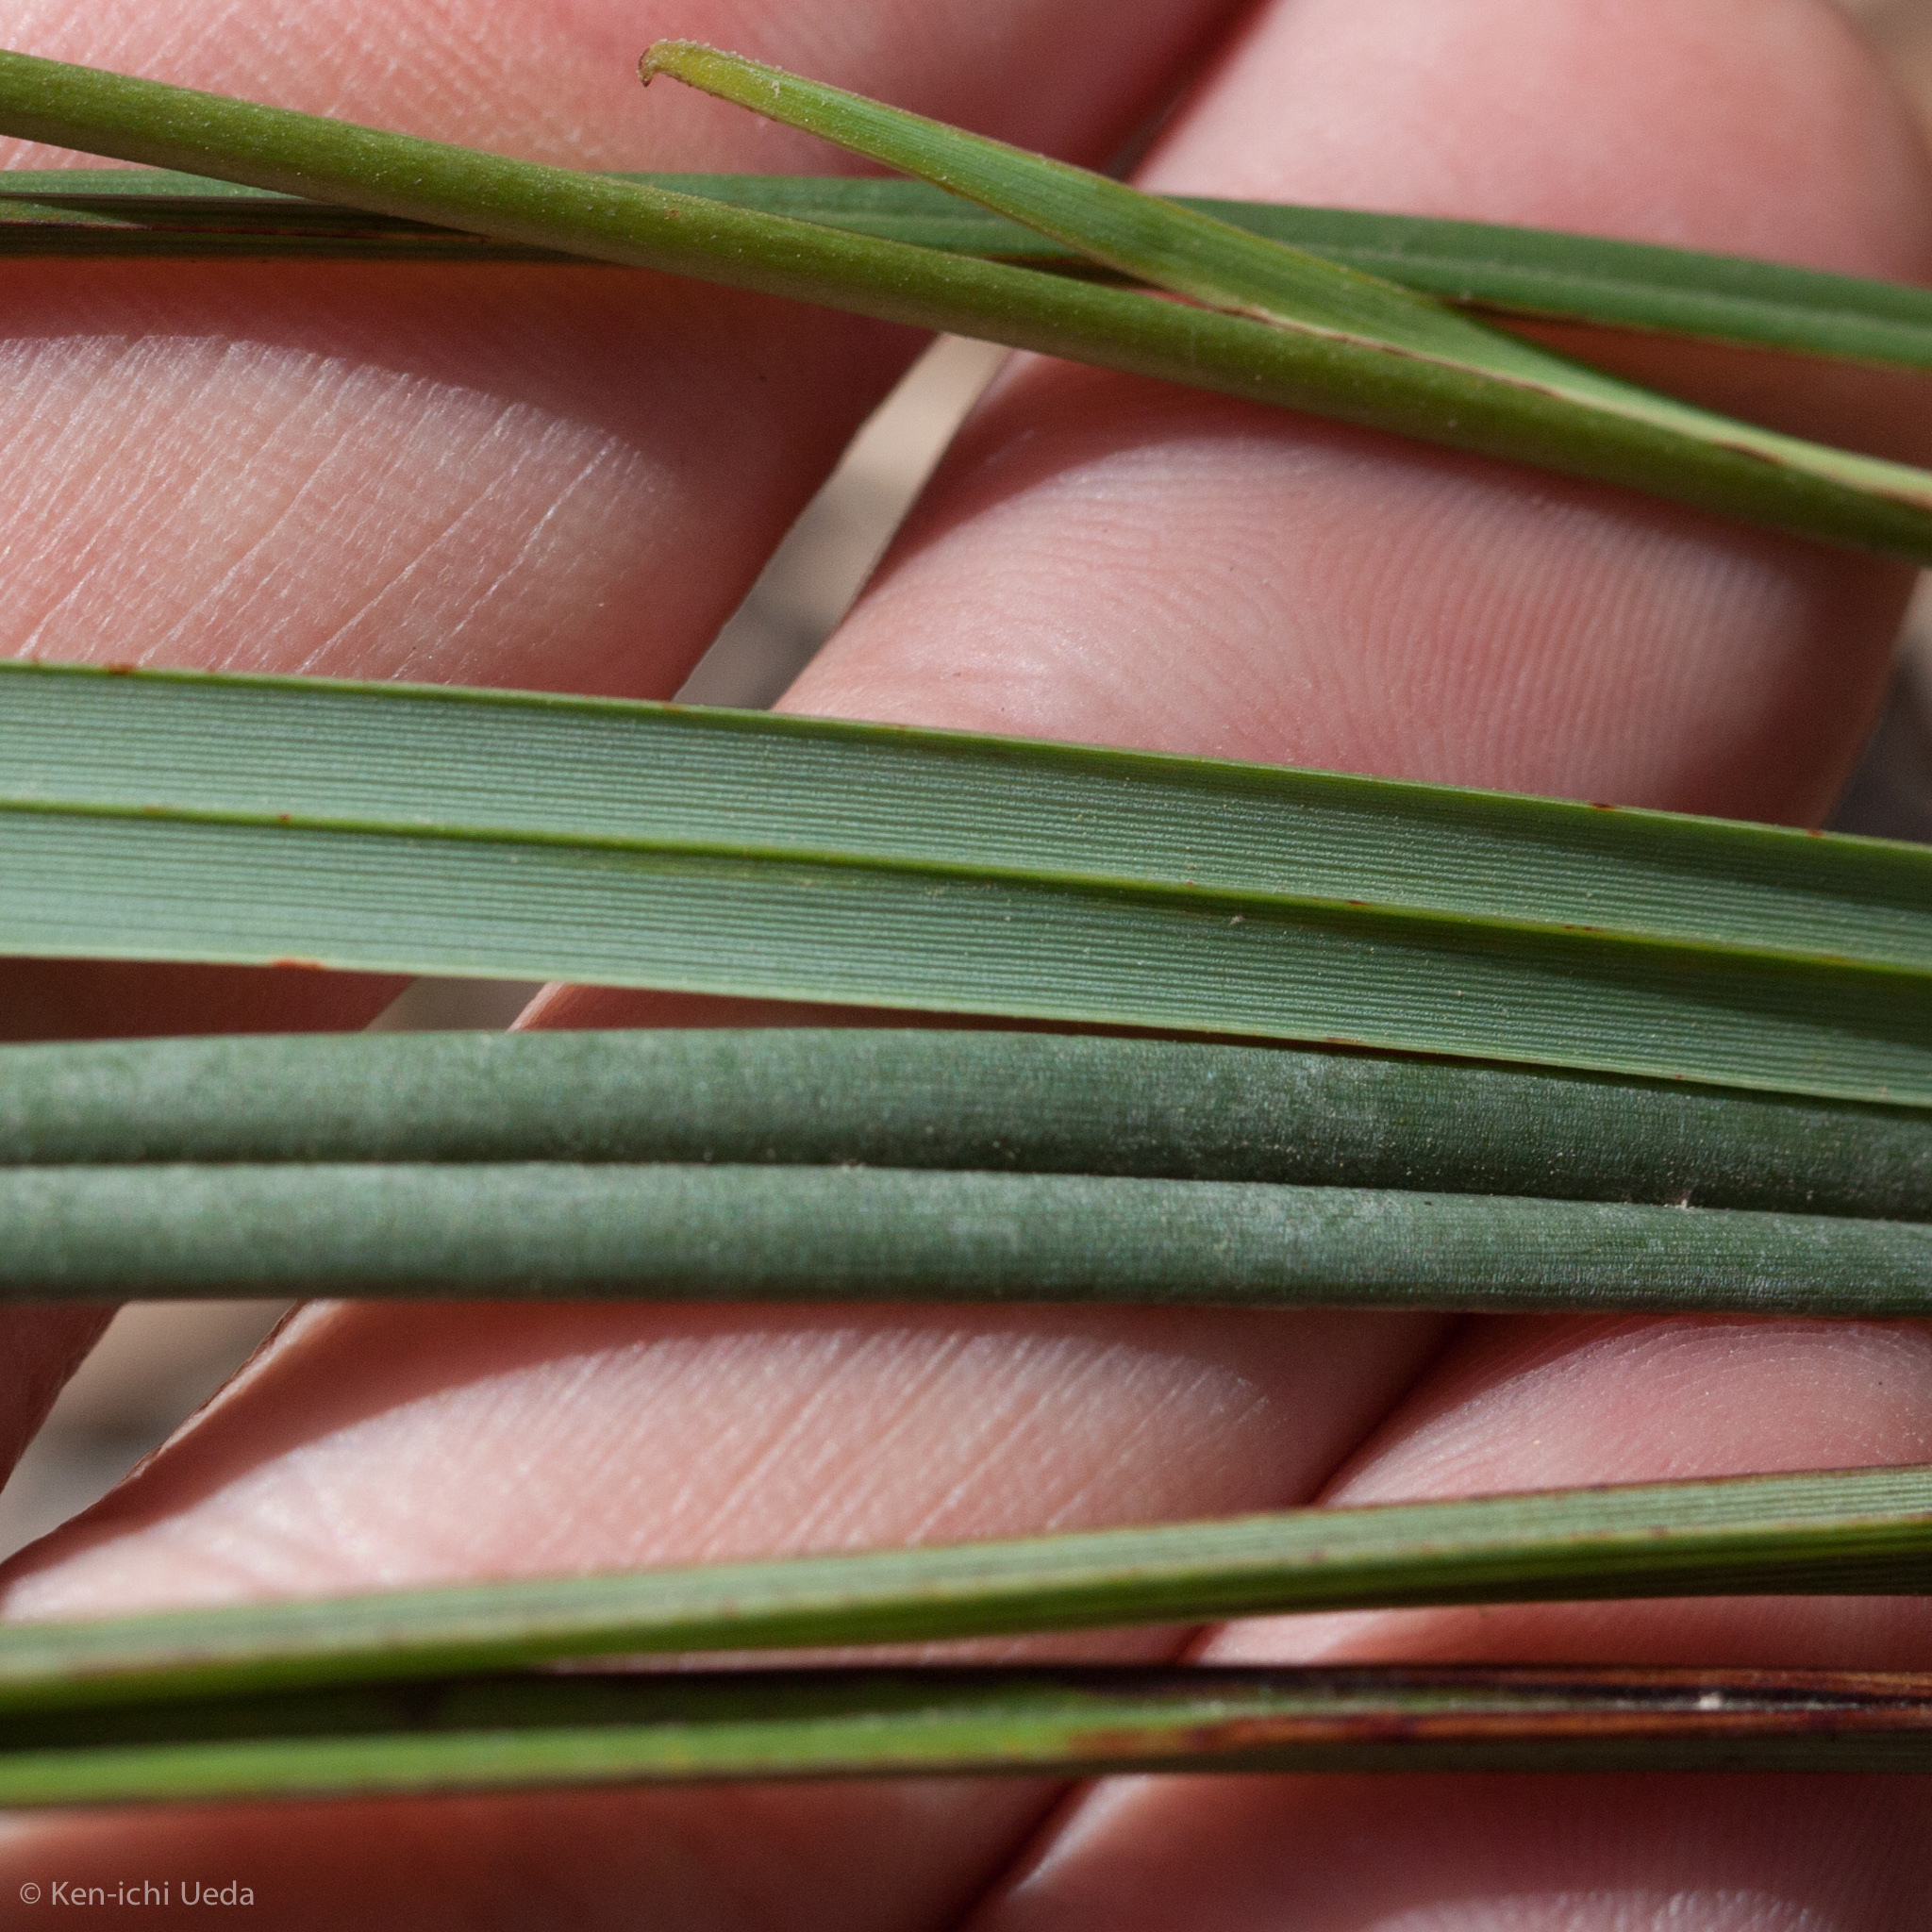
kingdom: Plantae
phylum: Tracheophyta
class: Liliopsida
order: Asparagales
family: Asphodelaceae
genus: Dianella
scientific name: Dianella revoluta
